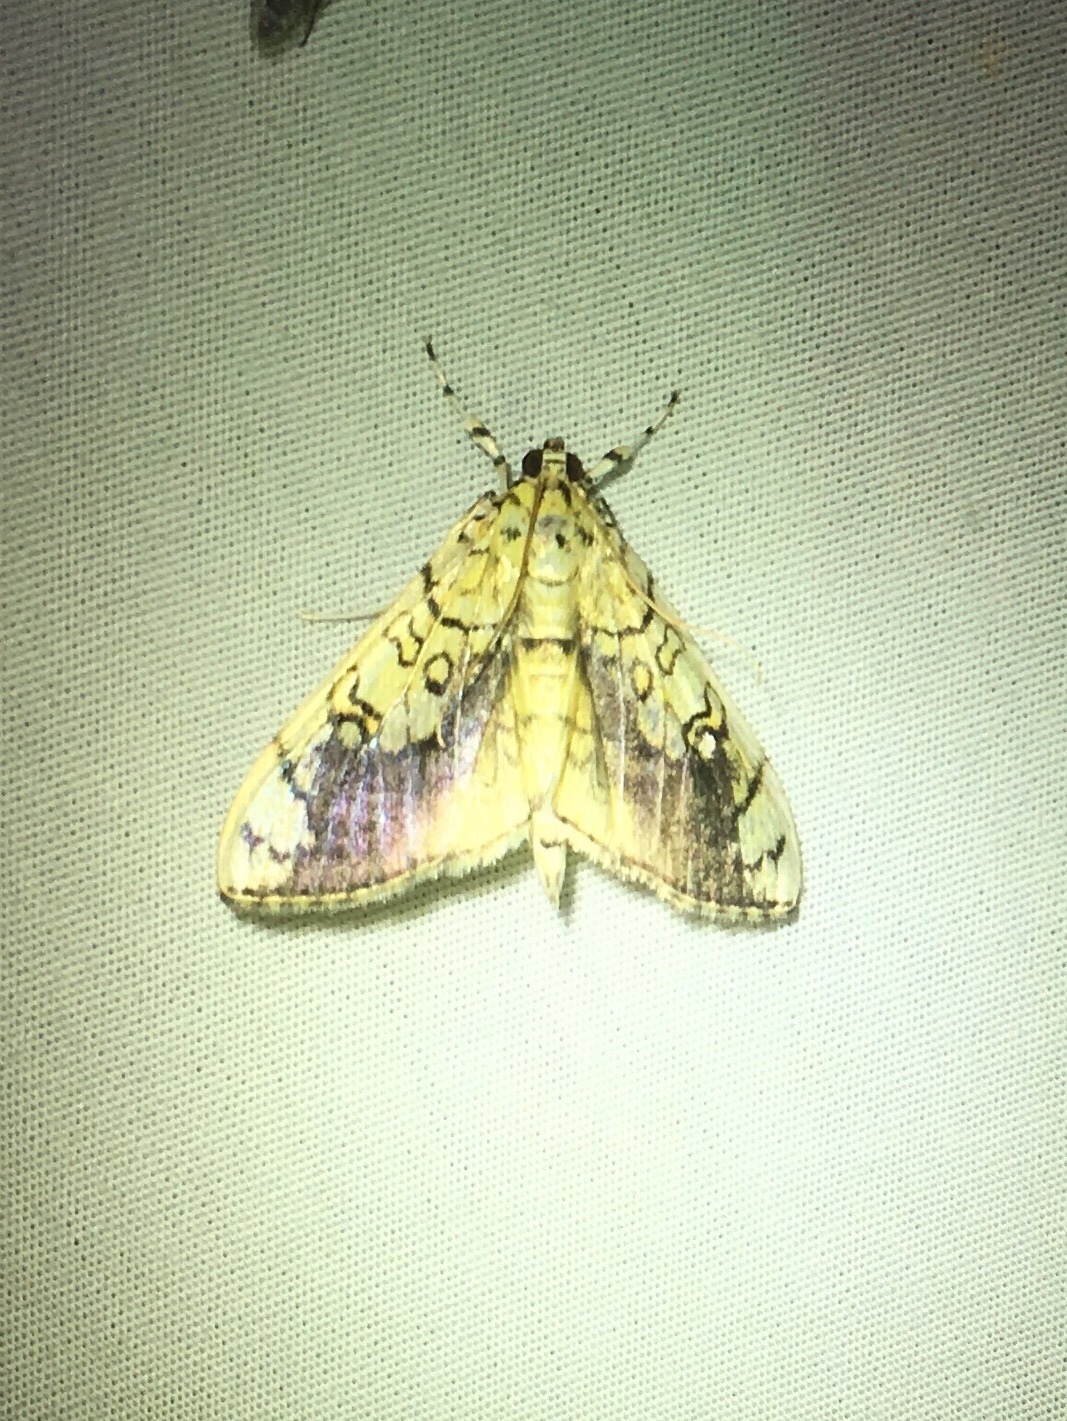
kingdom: Animalia
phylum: Arthropoda
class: Insecta
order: Lepidoptera
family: Crambidae
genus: Pantographa
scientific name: Pantographa limata
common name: Basswood leafroller moth
